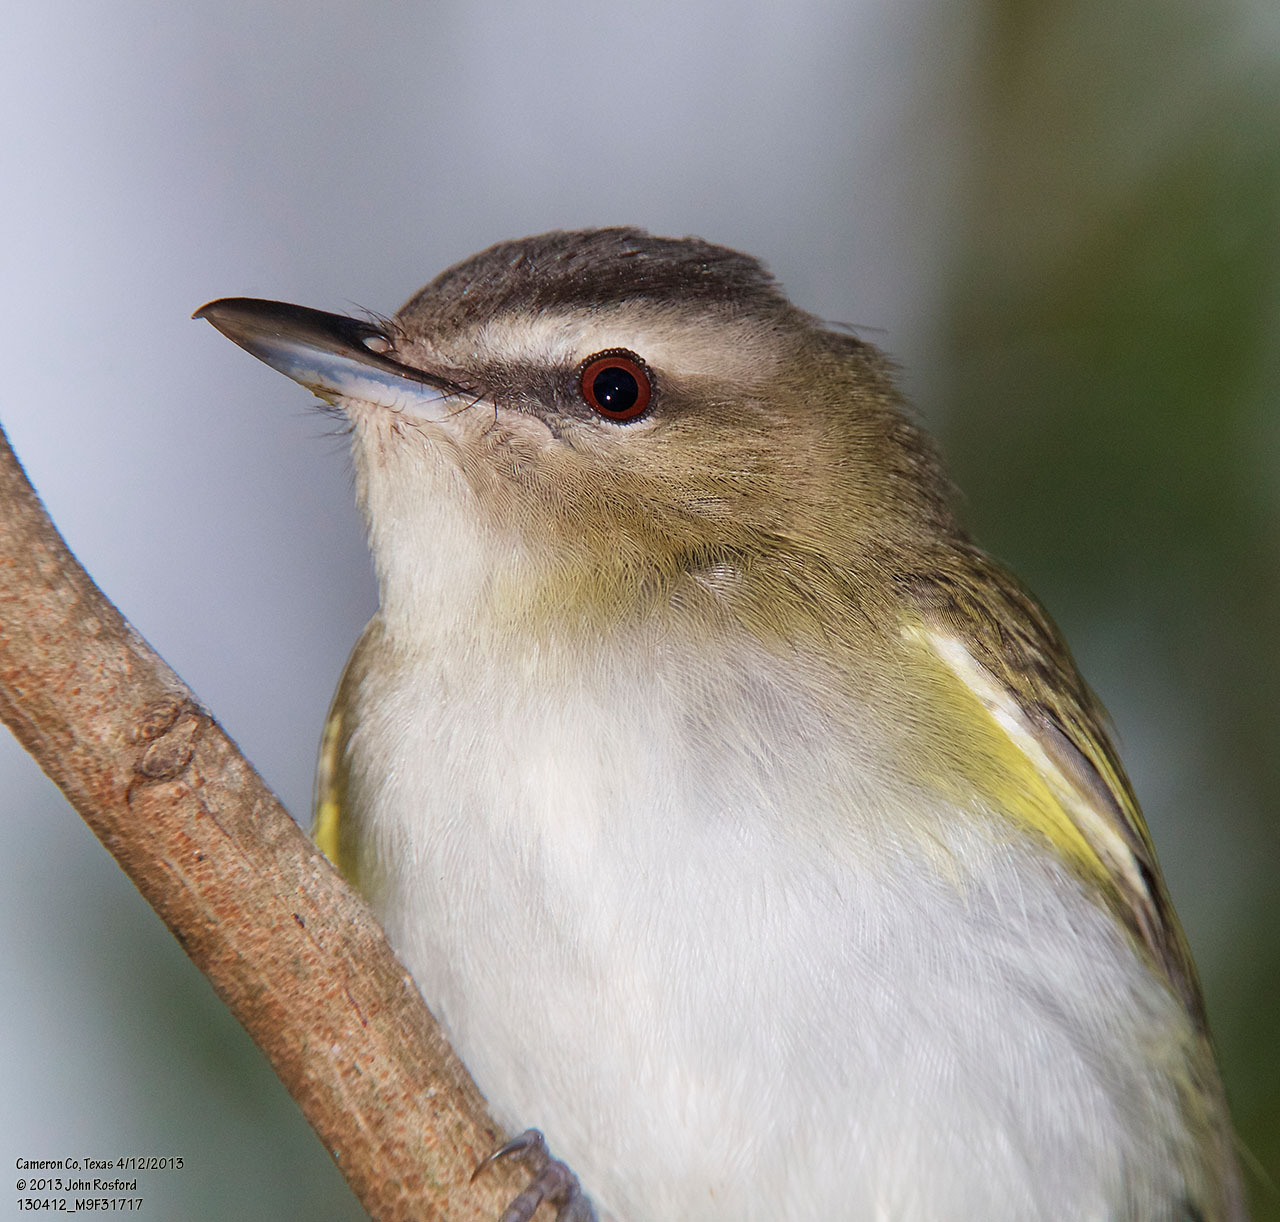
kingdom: Animalia
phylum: Chordata
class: Aves
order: Passeriformes
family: Vireonidae
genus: Vireo
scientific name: Vireo olivaceus
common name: Red-eyed vireo
